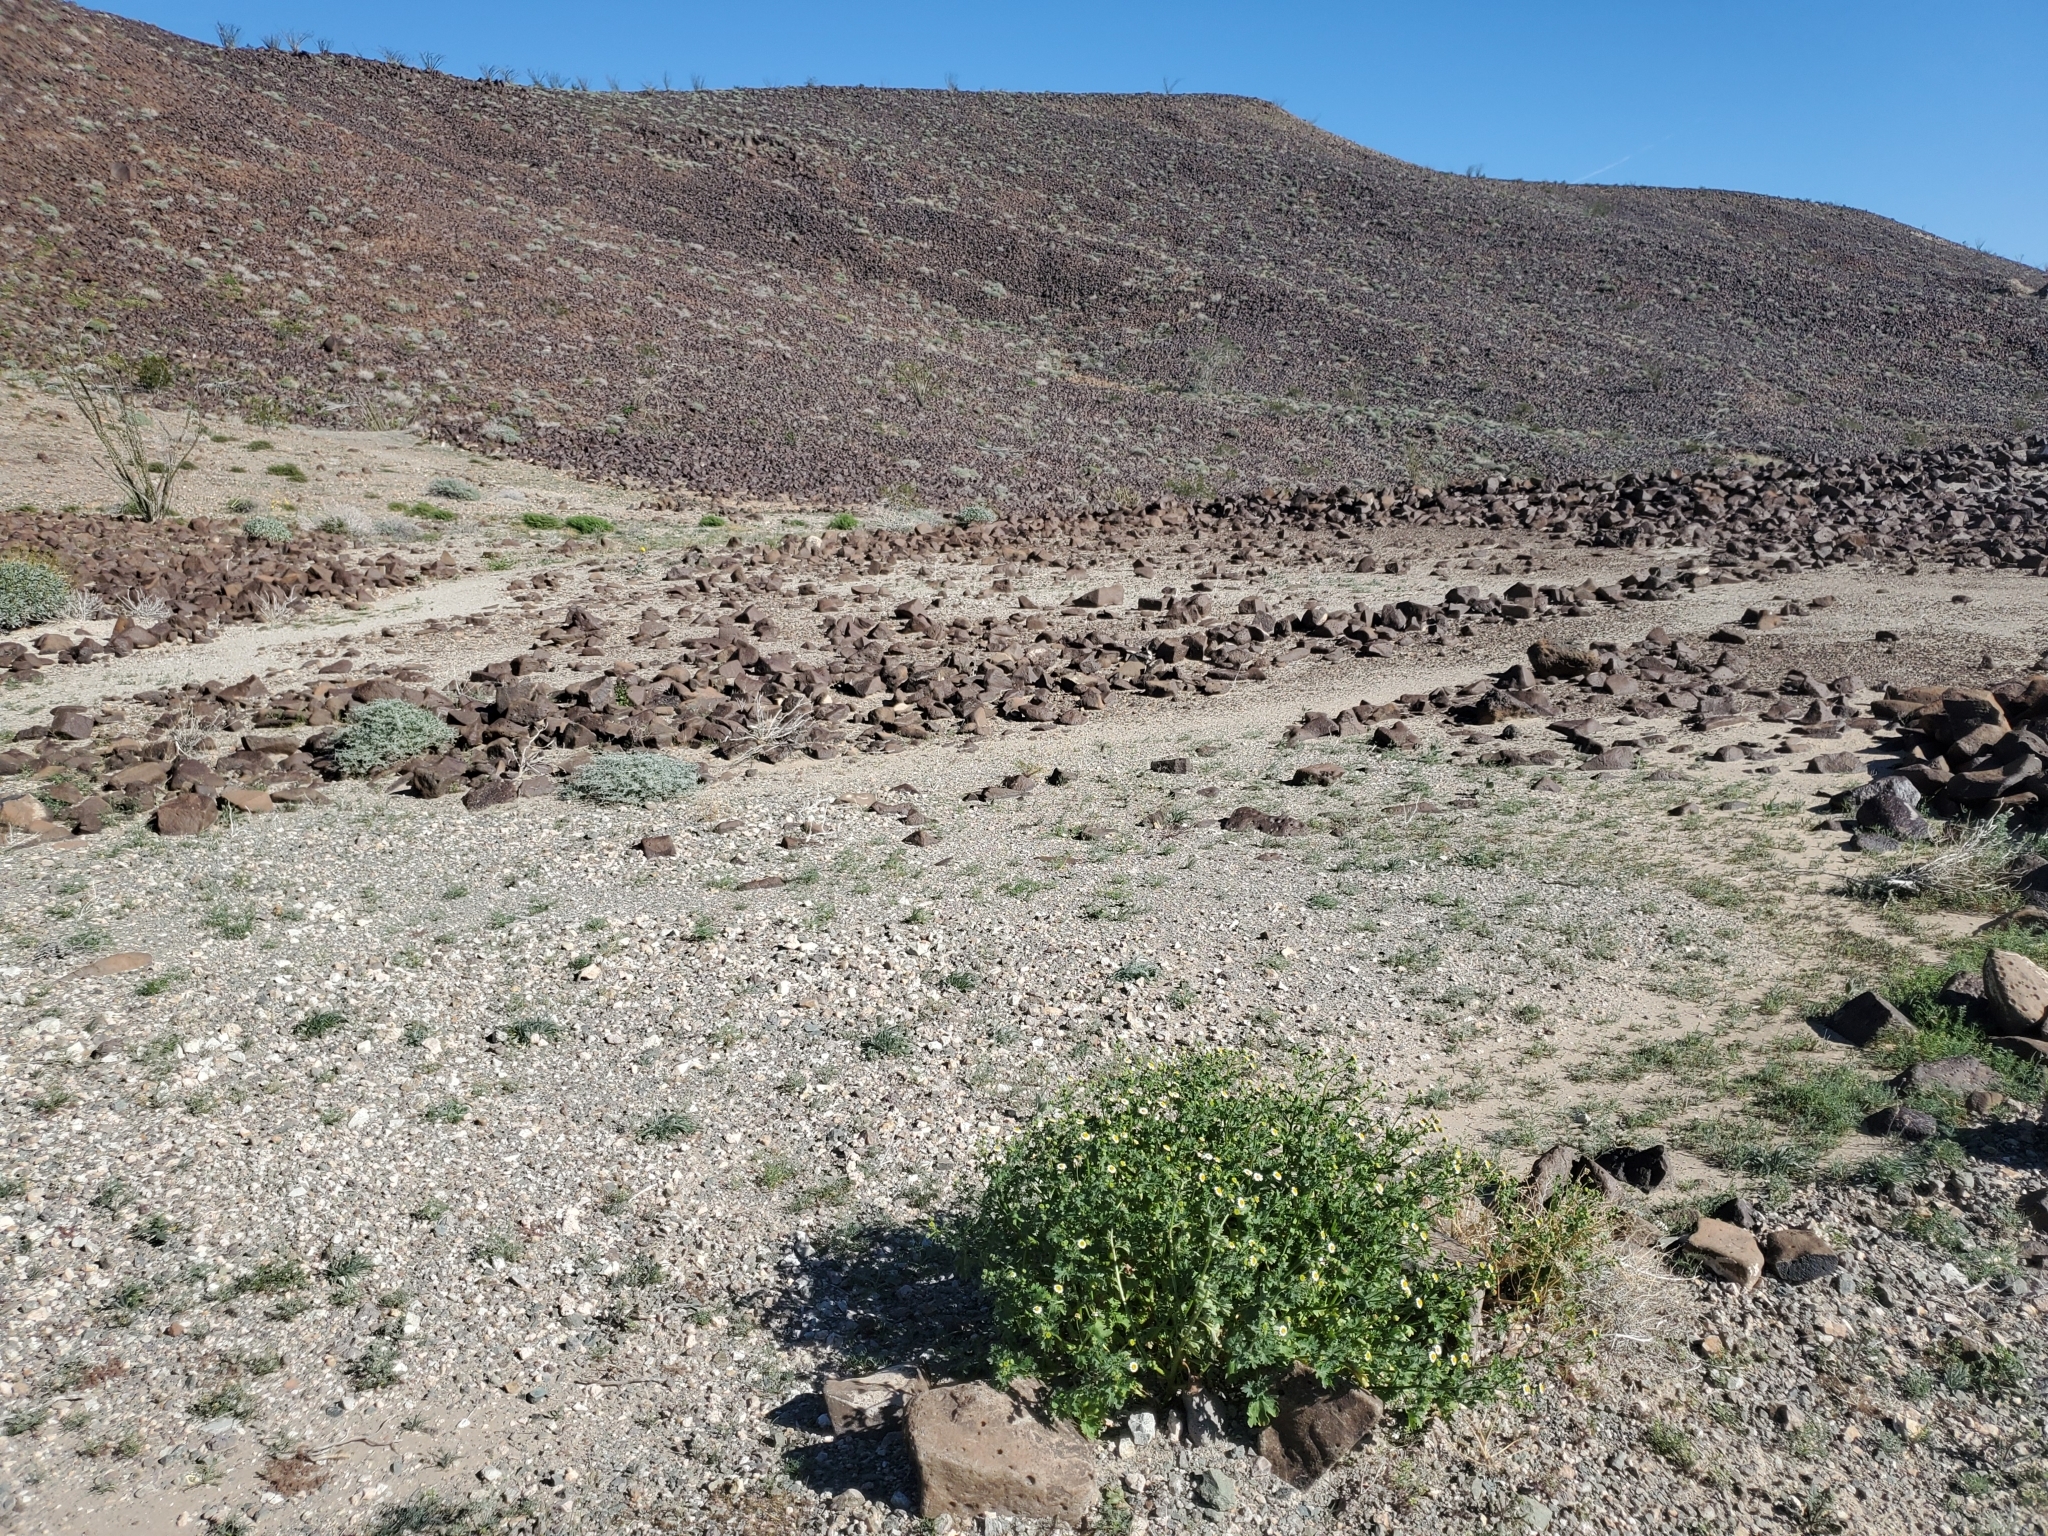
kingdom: Plantae
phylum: Tracheophyta
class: Magnoliopsida
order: Asterales
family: Asteraceae
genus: Laphamia
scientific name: Laphamia emoryi
